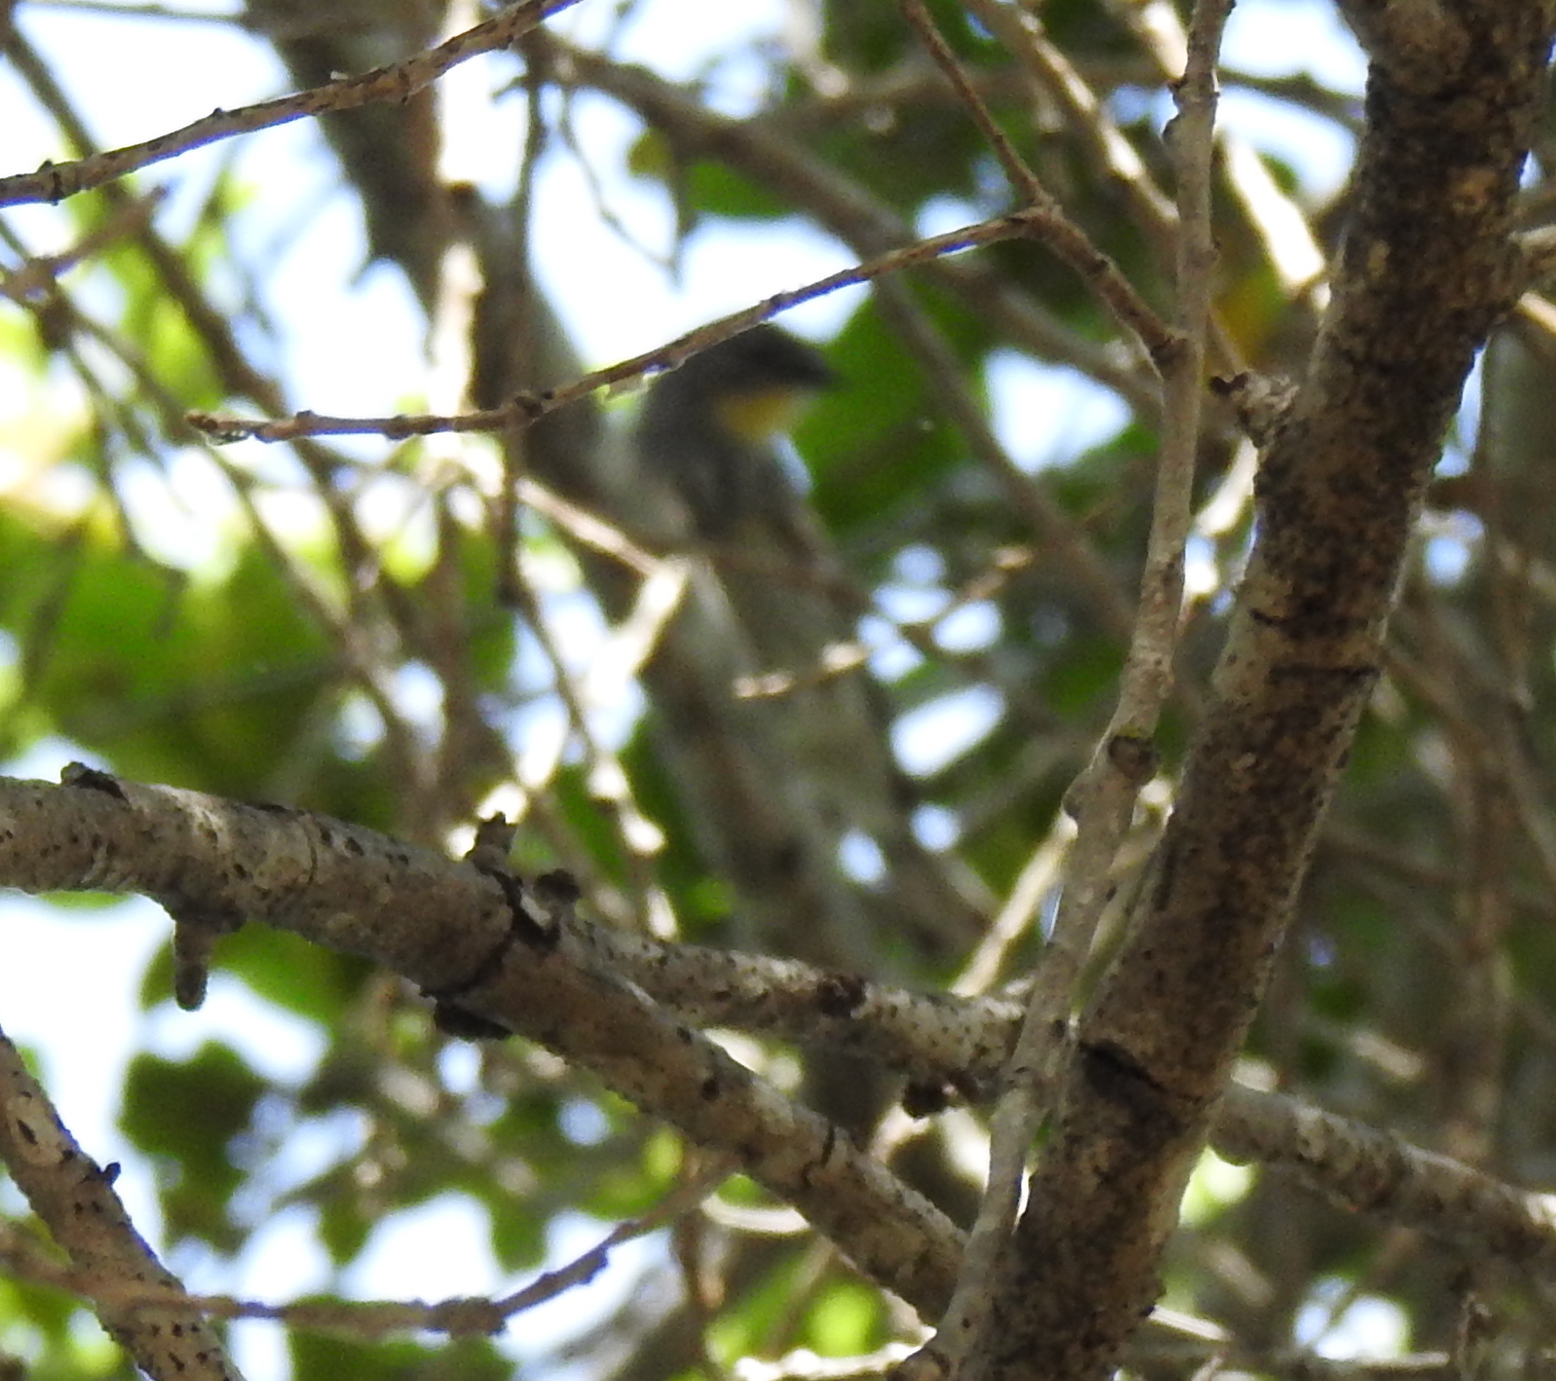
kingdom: Animalia
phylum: Chordata
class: Aves
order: Passeriformes
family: Parulidae
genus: Setophaga
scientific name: Setophaga coronata
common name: Myrtle warbler
